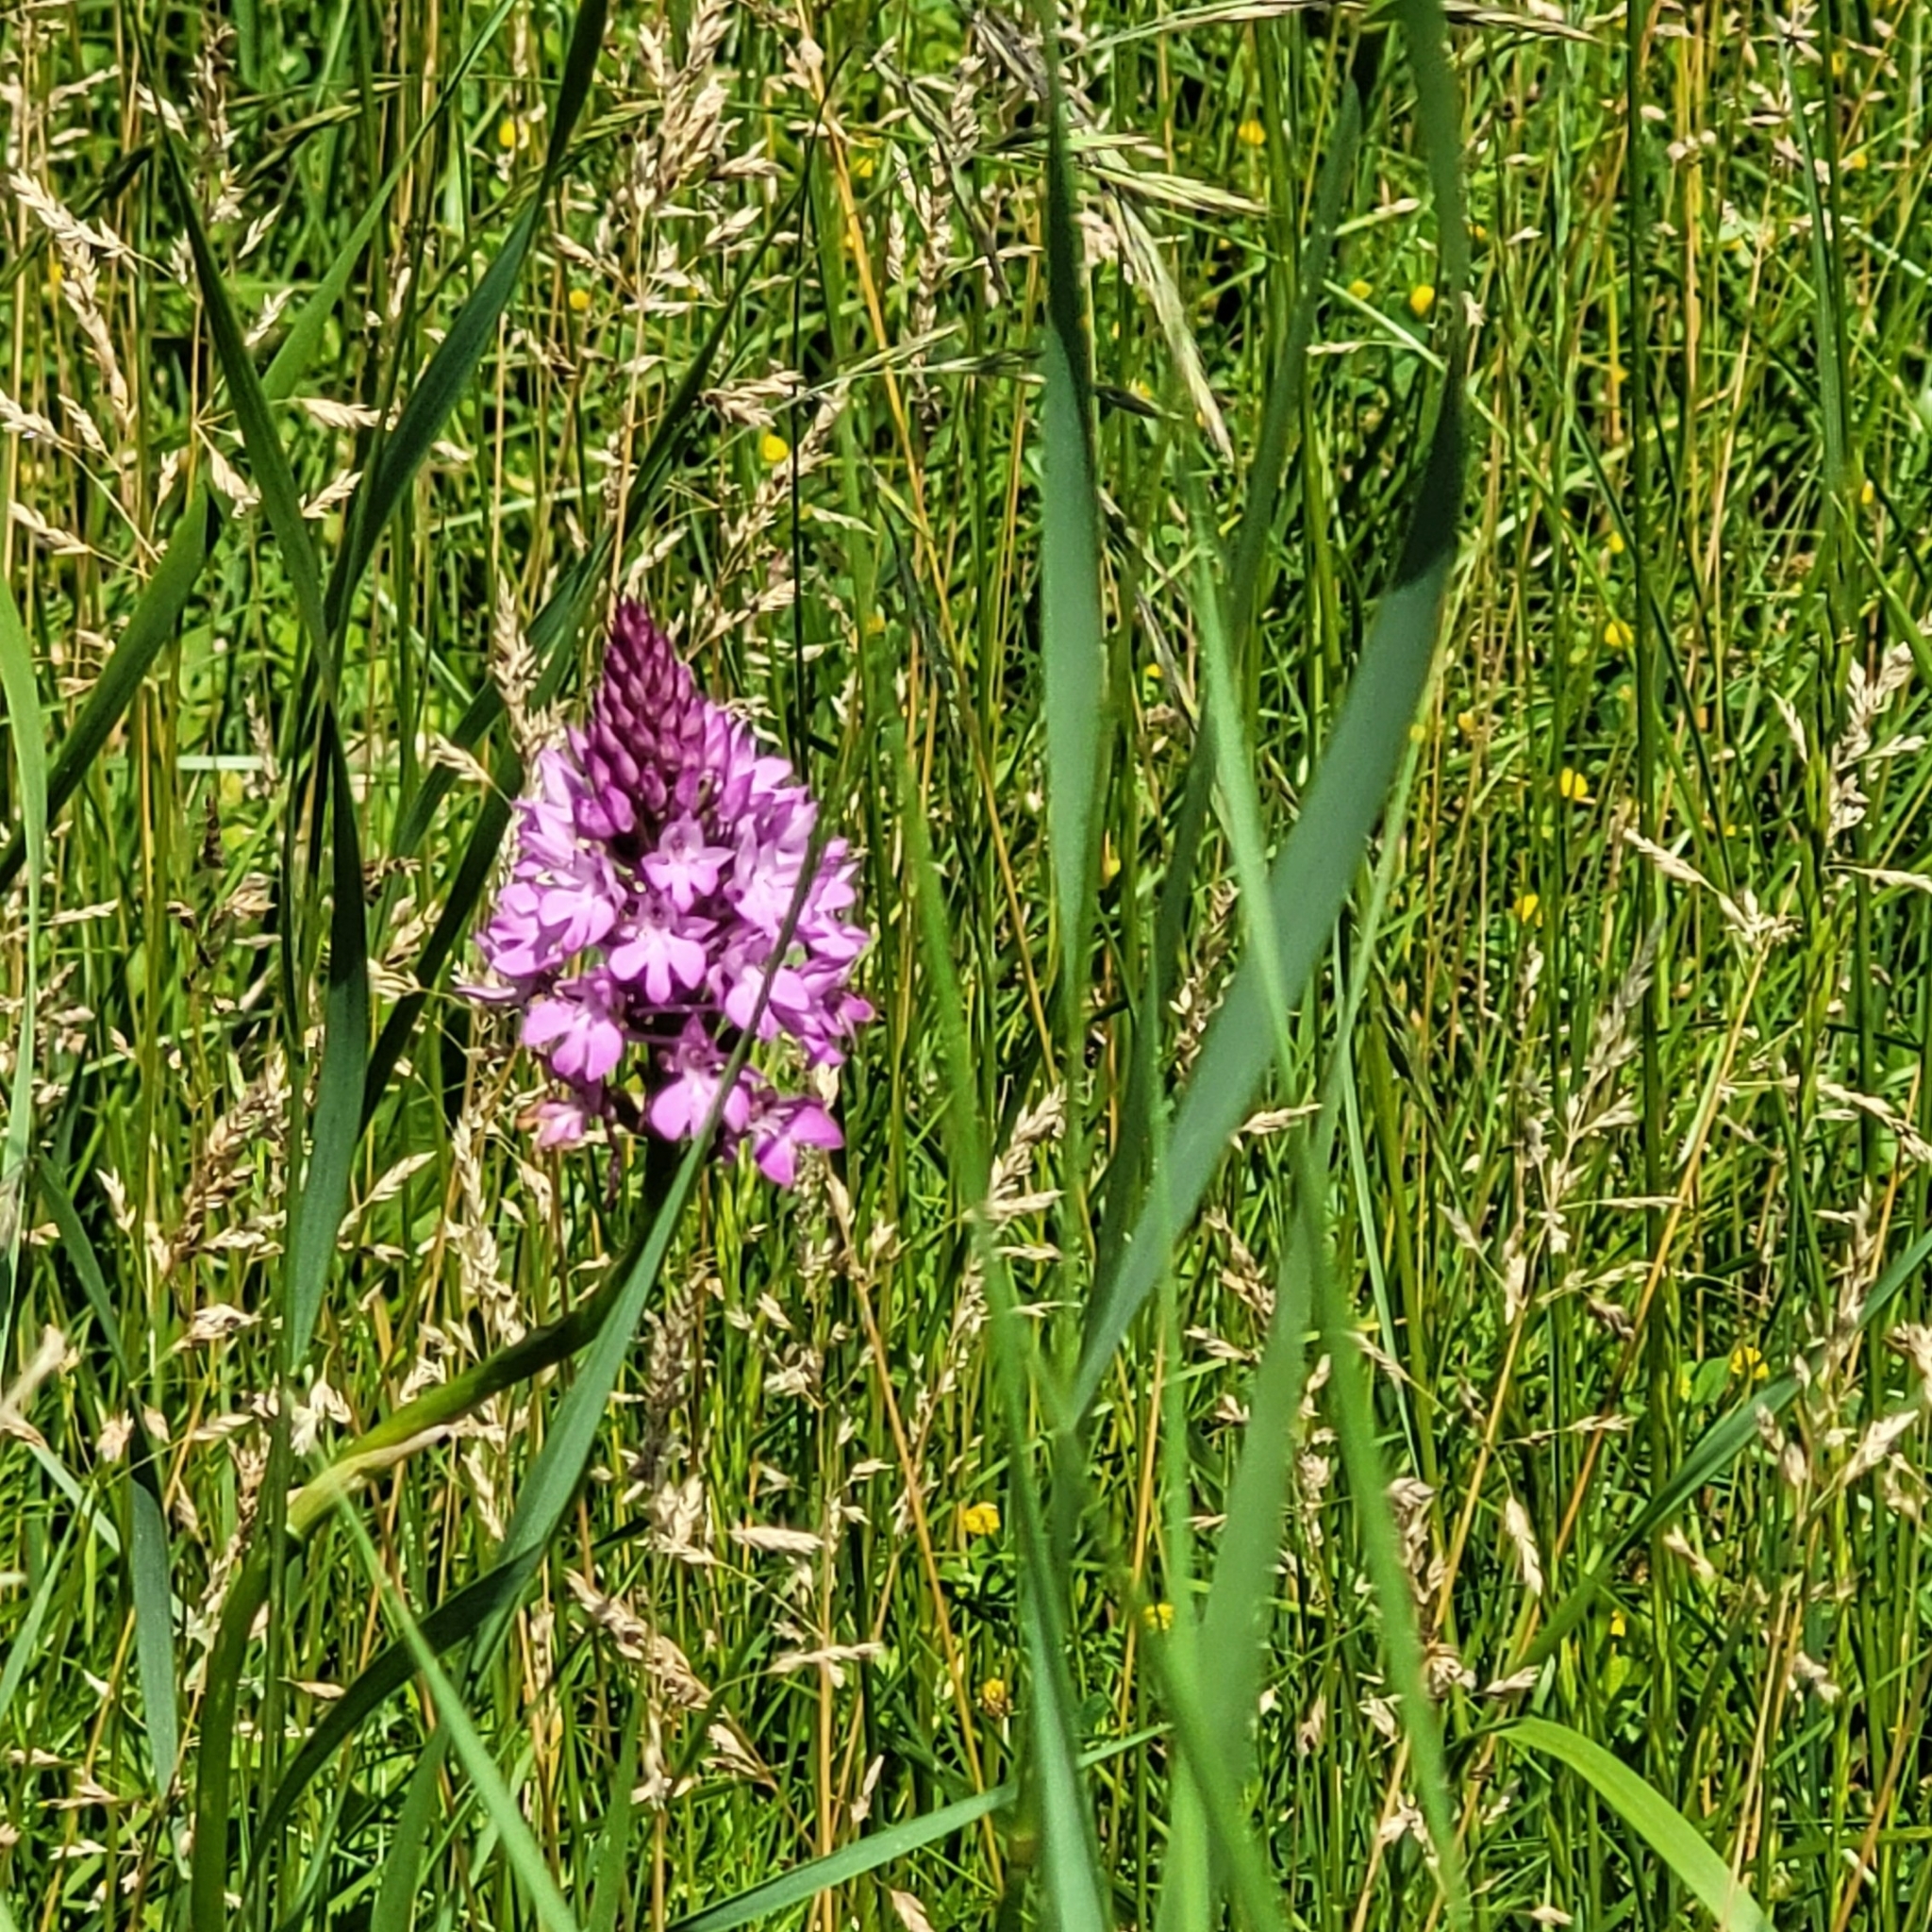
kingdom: Plantae
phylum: Tracheophyta
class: Liliopsida
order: Asparagales
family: Orchidaceae
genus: Anacamptis
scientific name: Anacamptis pyramidalis
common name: Pyramidal orchid
